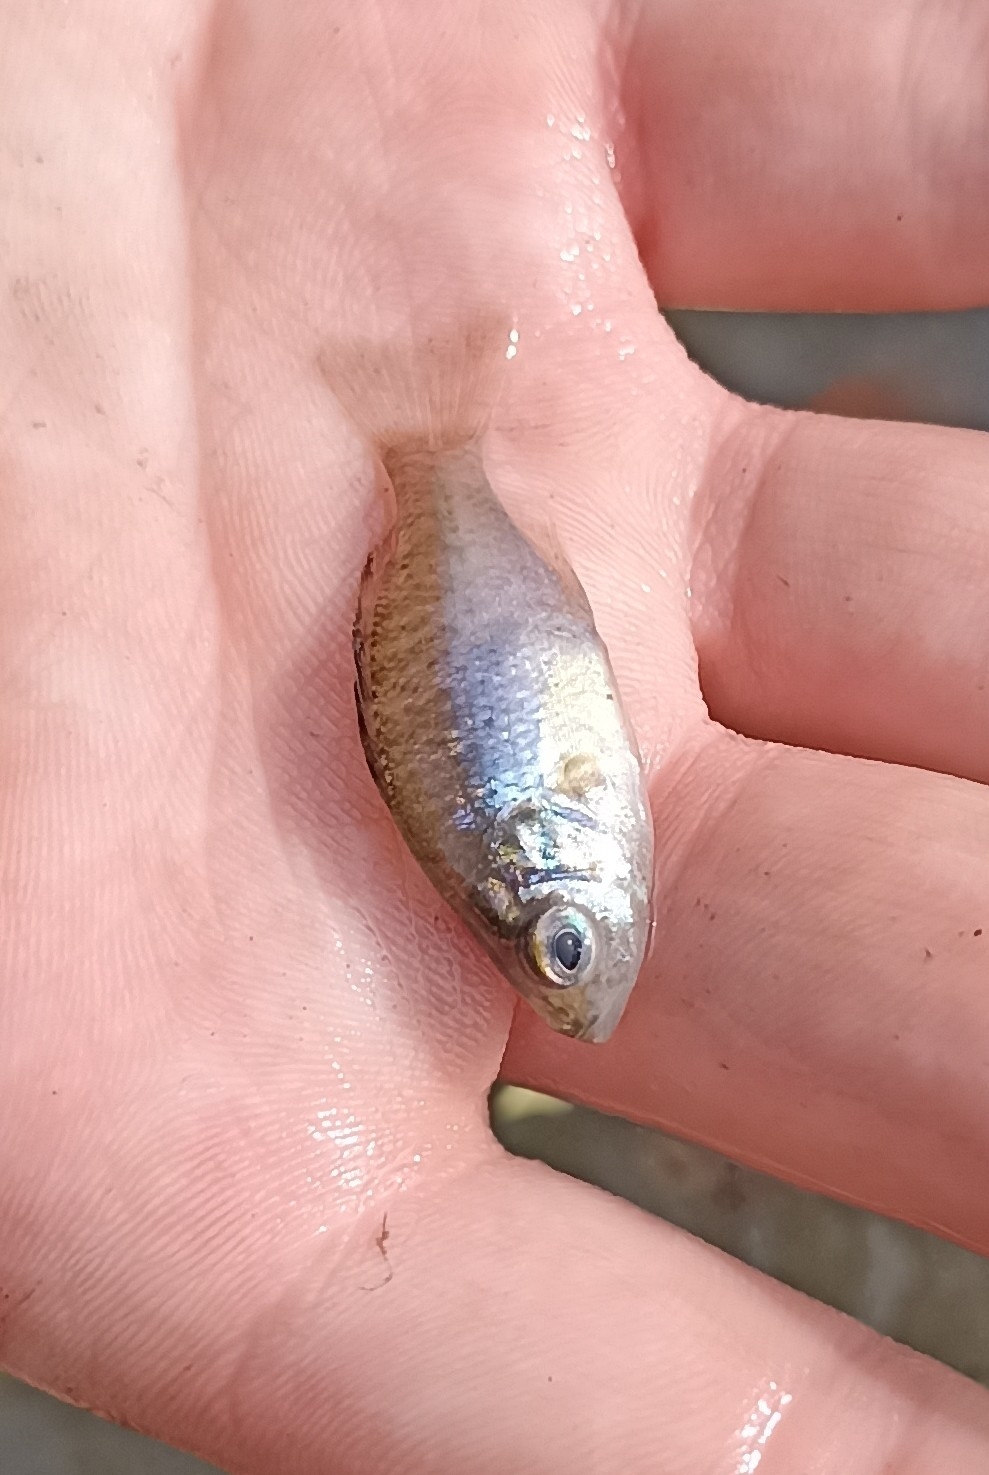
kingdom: Animalia
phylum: Chordata
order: Perciformes
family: Centrarchidae
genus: Lepomis
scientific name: Lepomis gibbosus
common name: Pumpkinseed
